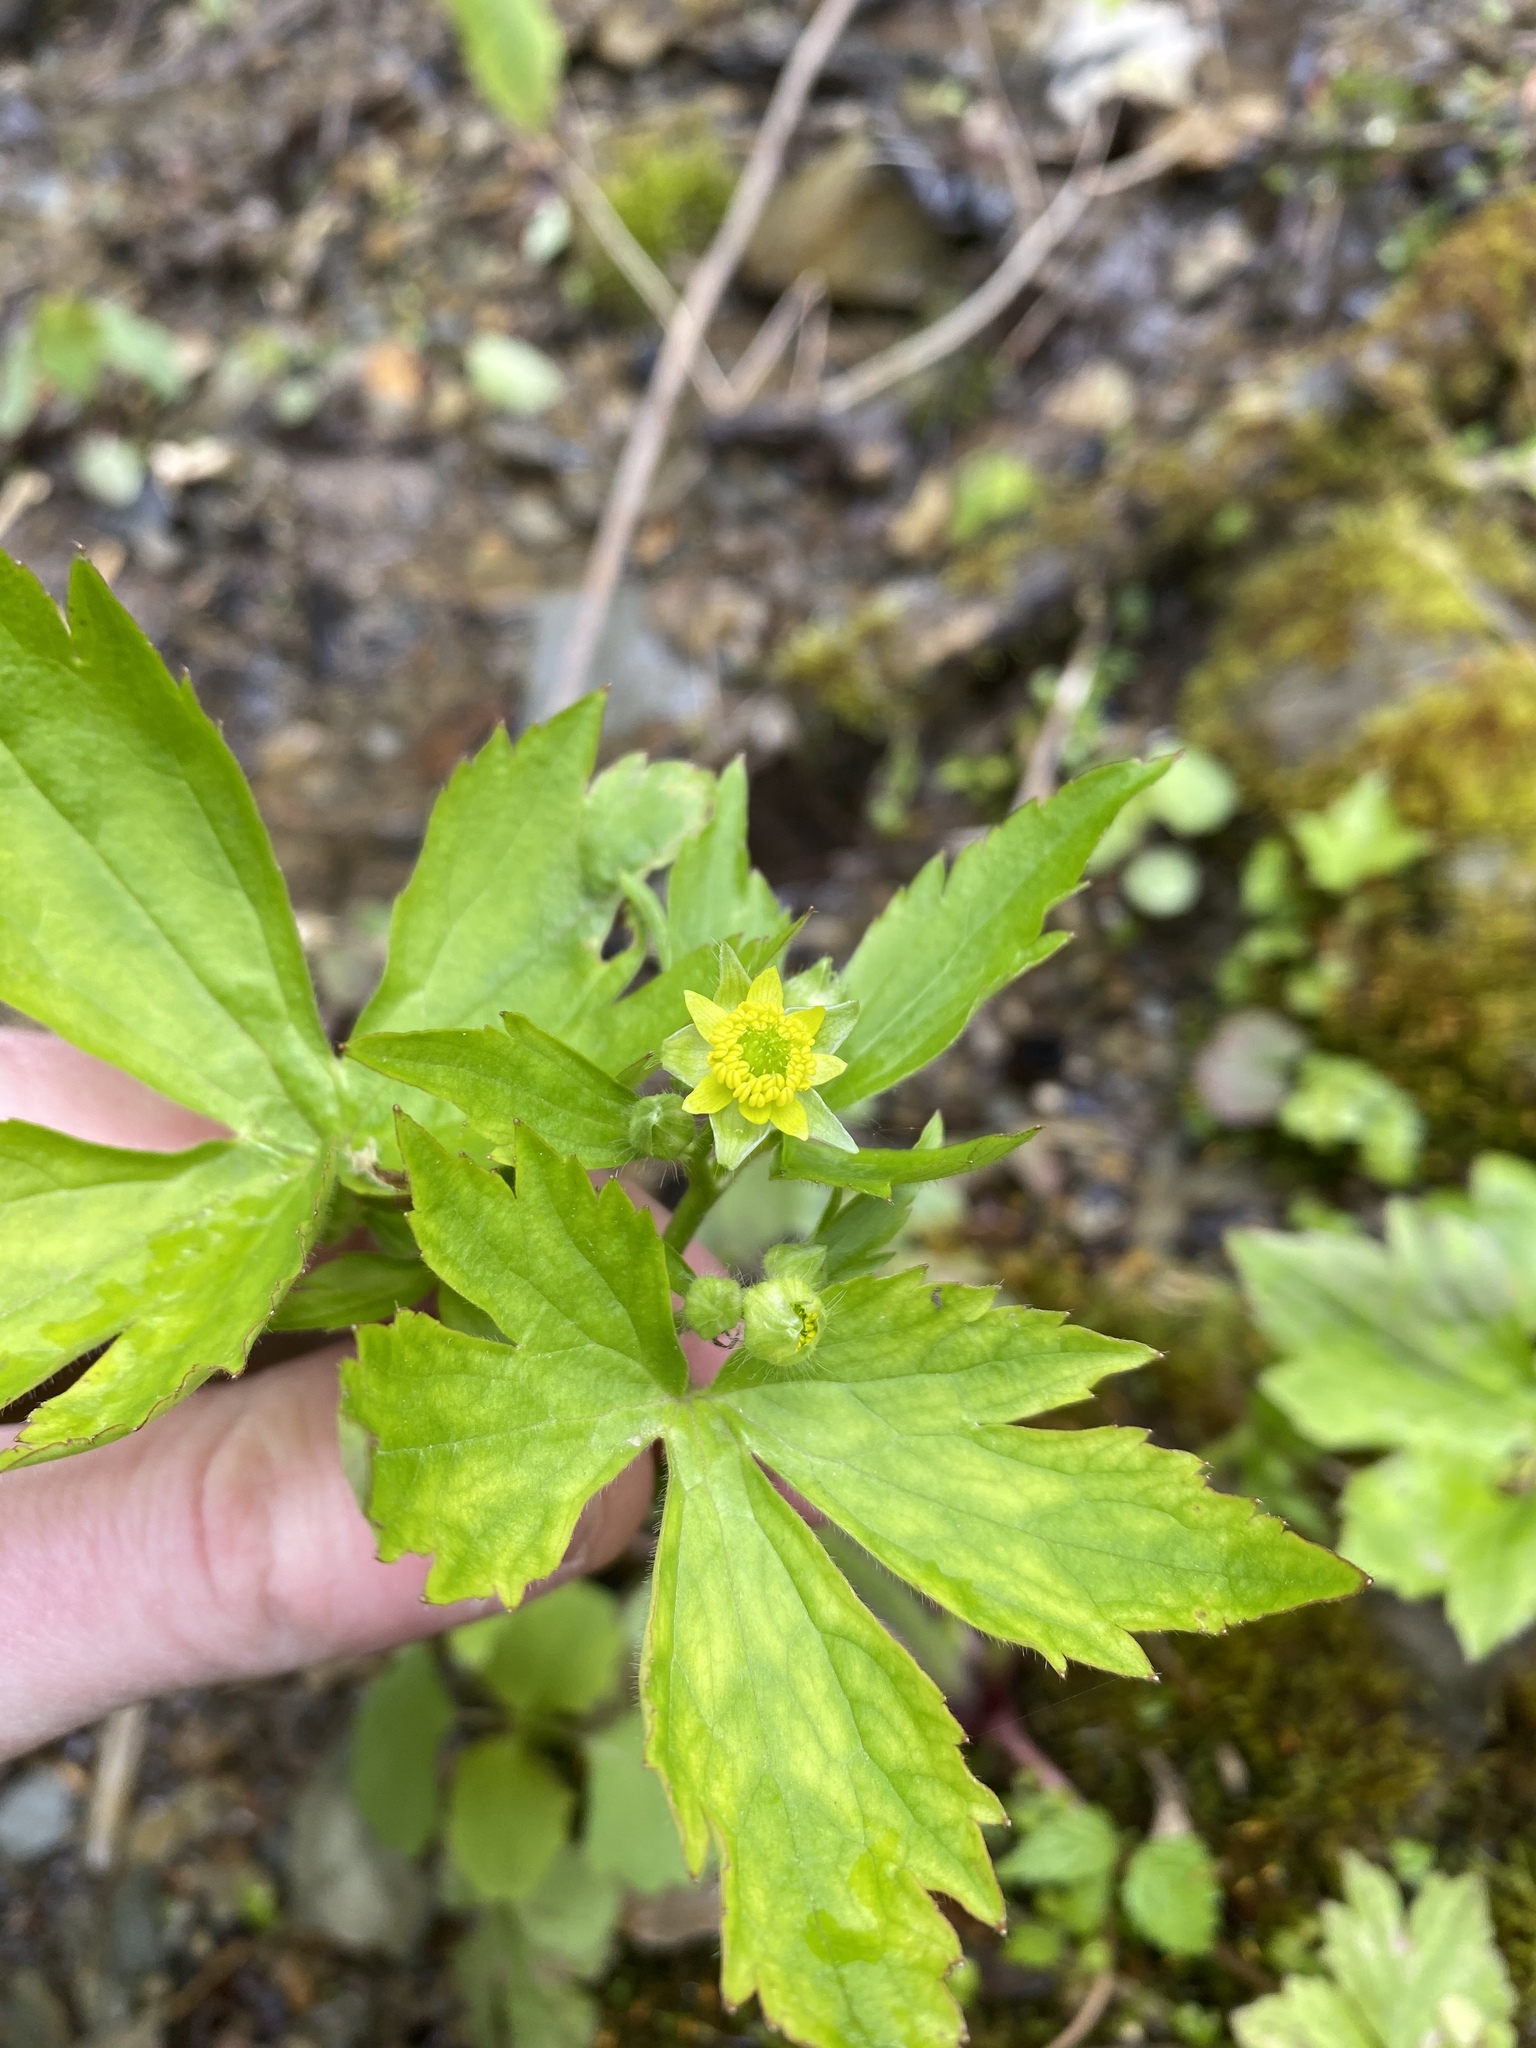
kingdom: Plantae
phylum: Tracheophyta
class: Magnoliopsida
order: Ranunculales
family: Ranunculaceae
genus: Ranunculus
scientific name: Ranunculus recurvatus
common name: Blisterwort
